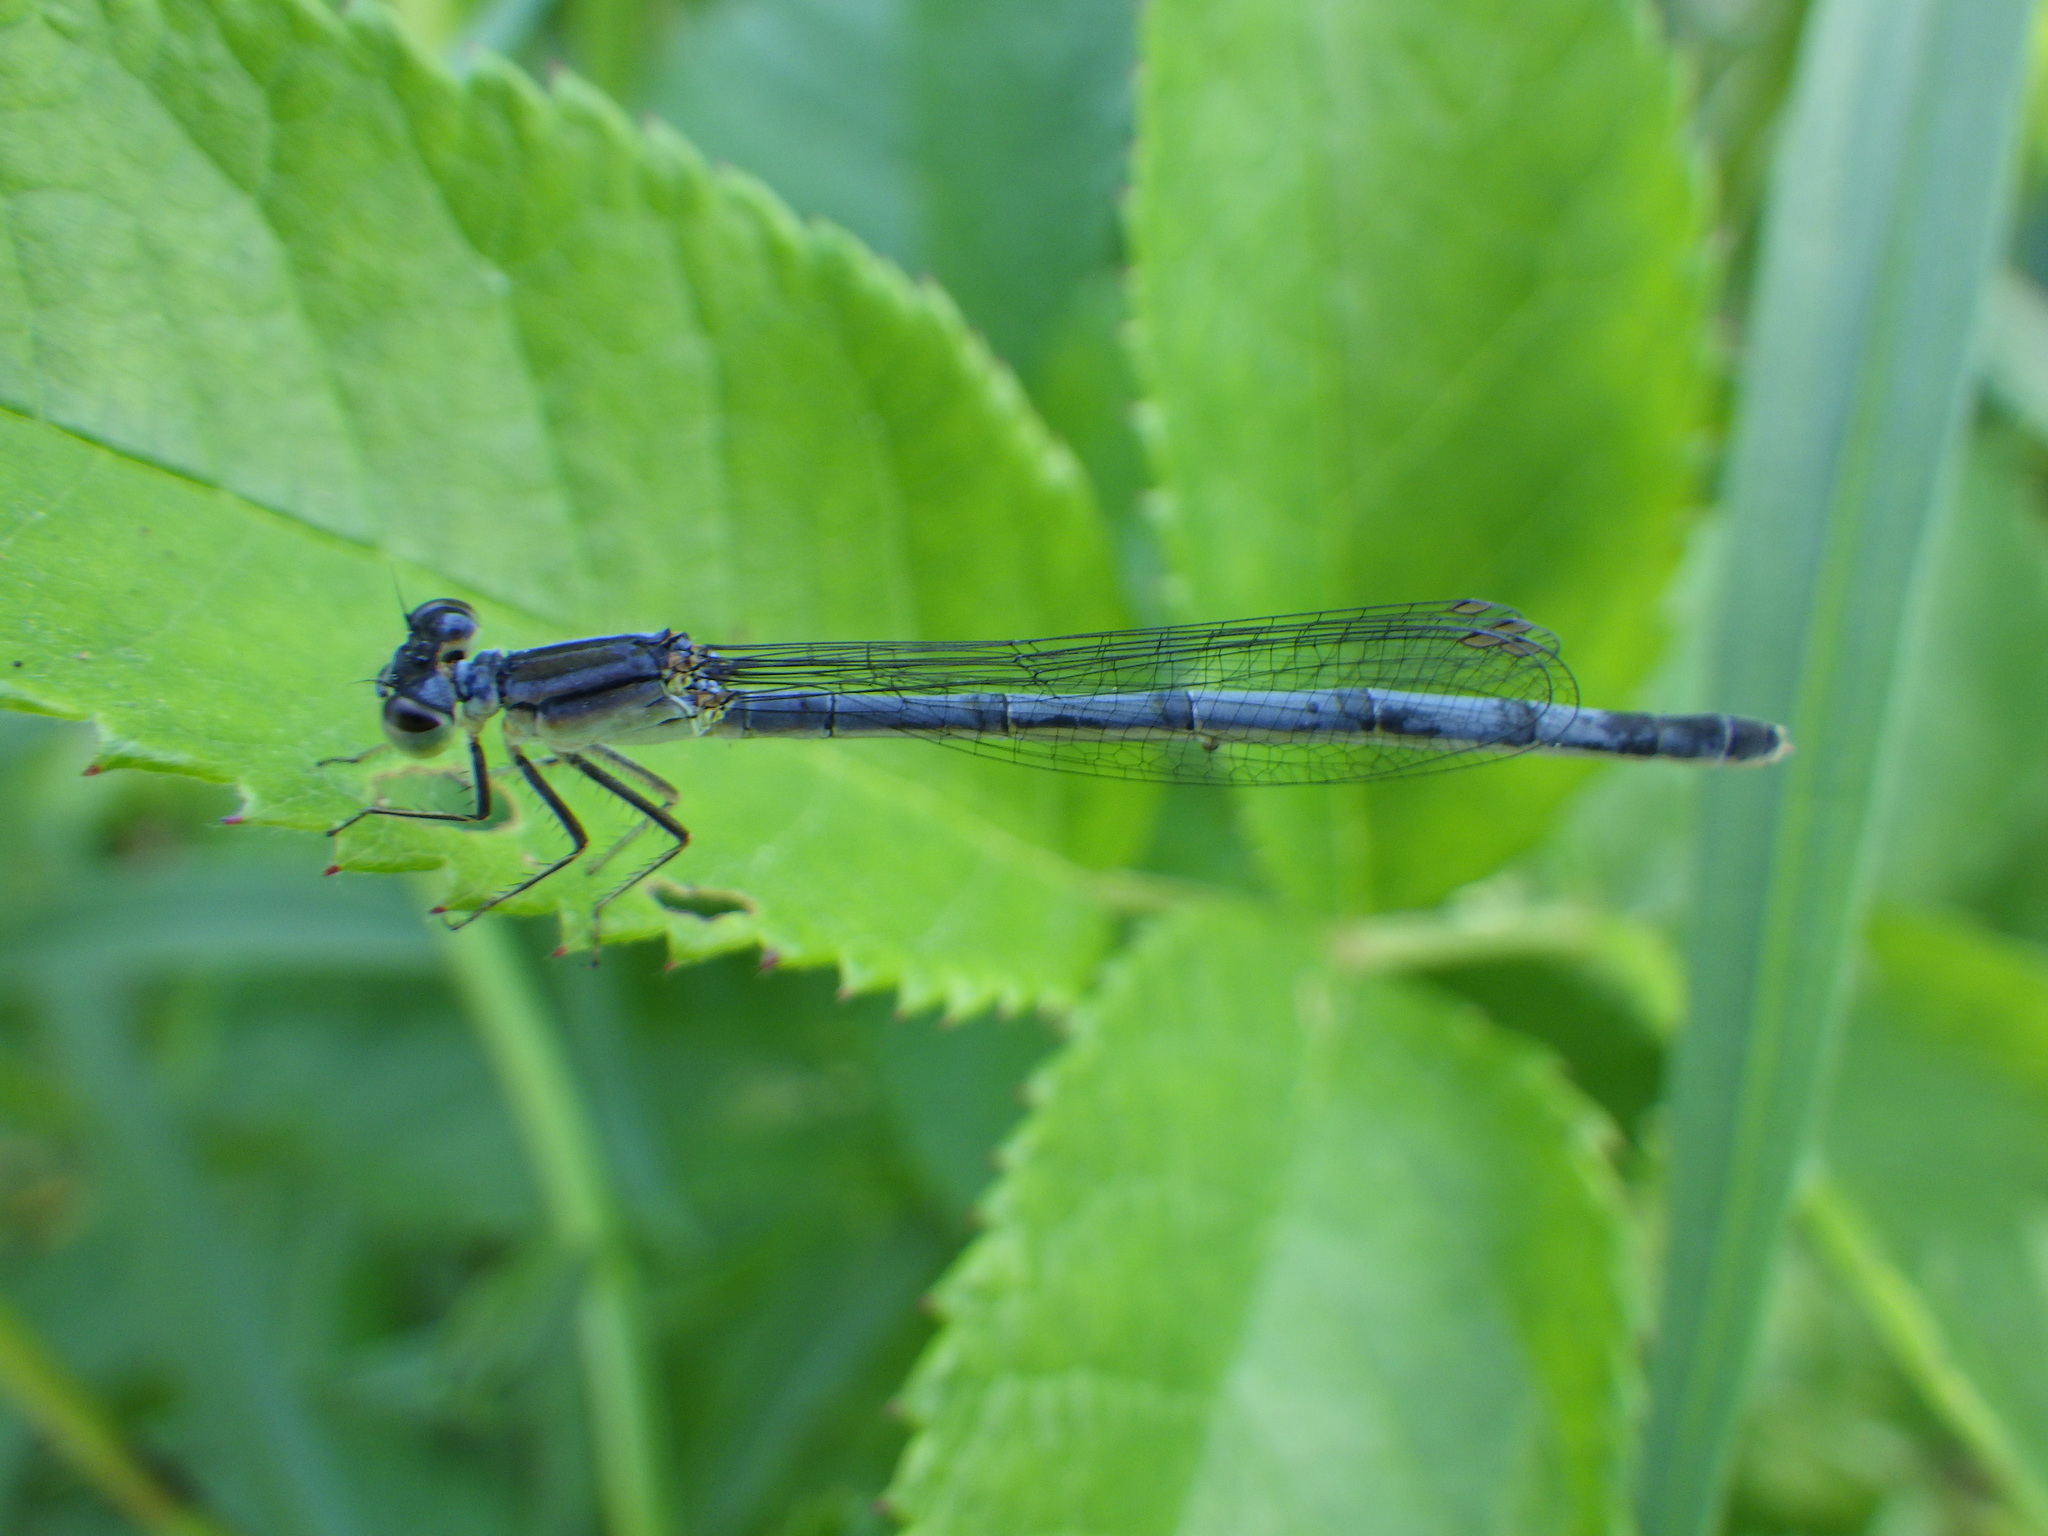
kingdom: Animalia
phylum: Arthropoda
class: Insecta
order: Odonata
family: Coenagrionidae
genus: Ischnura
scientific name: Ischnura verticalis
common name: Eastern forktail
